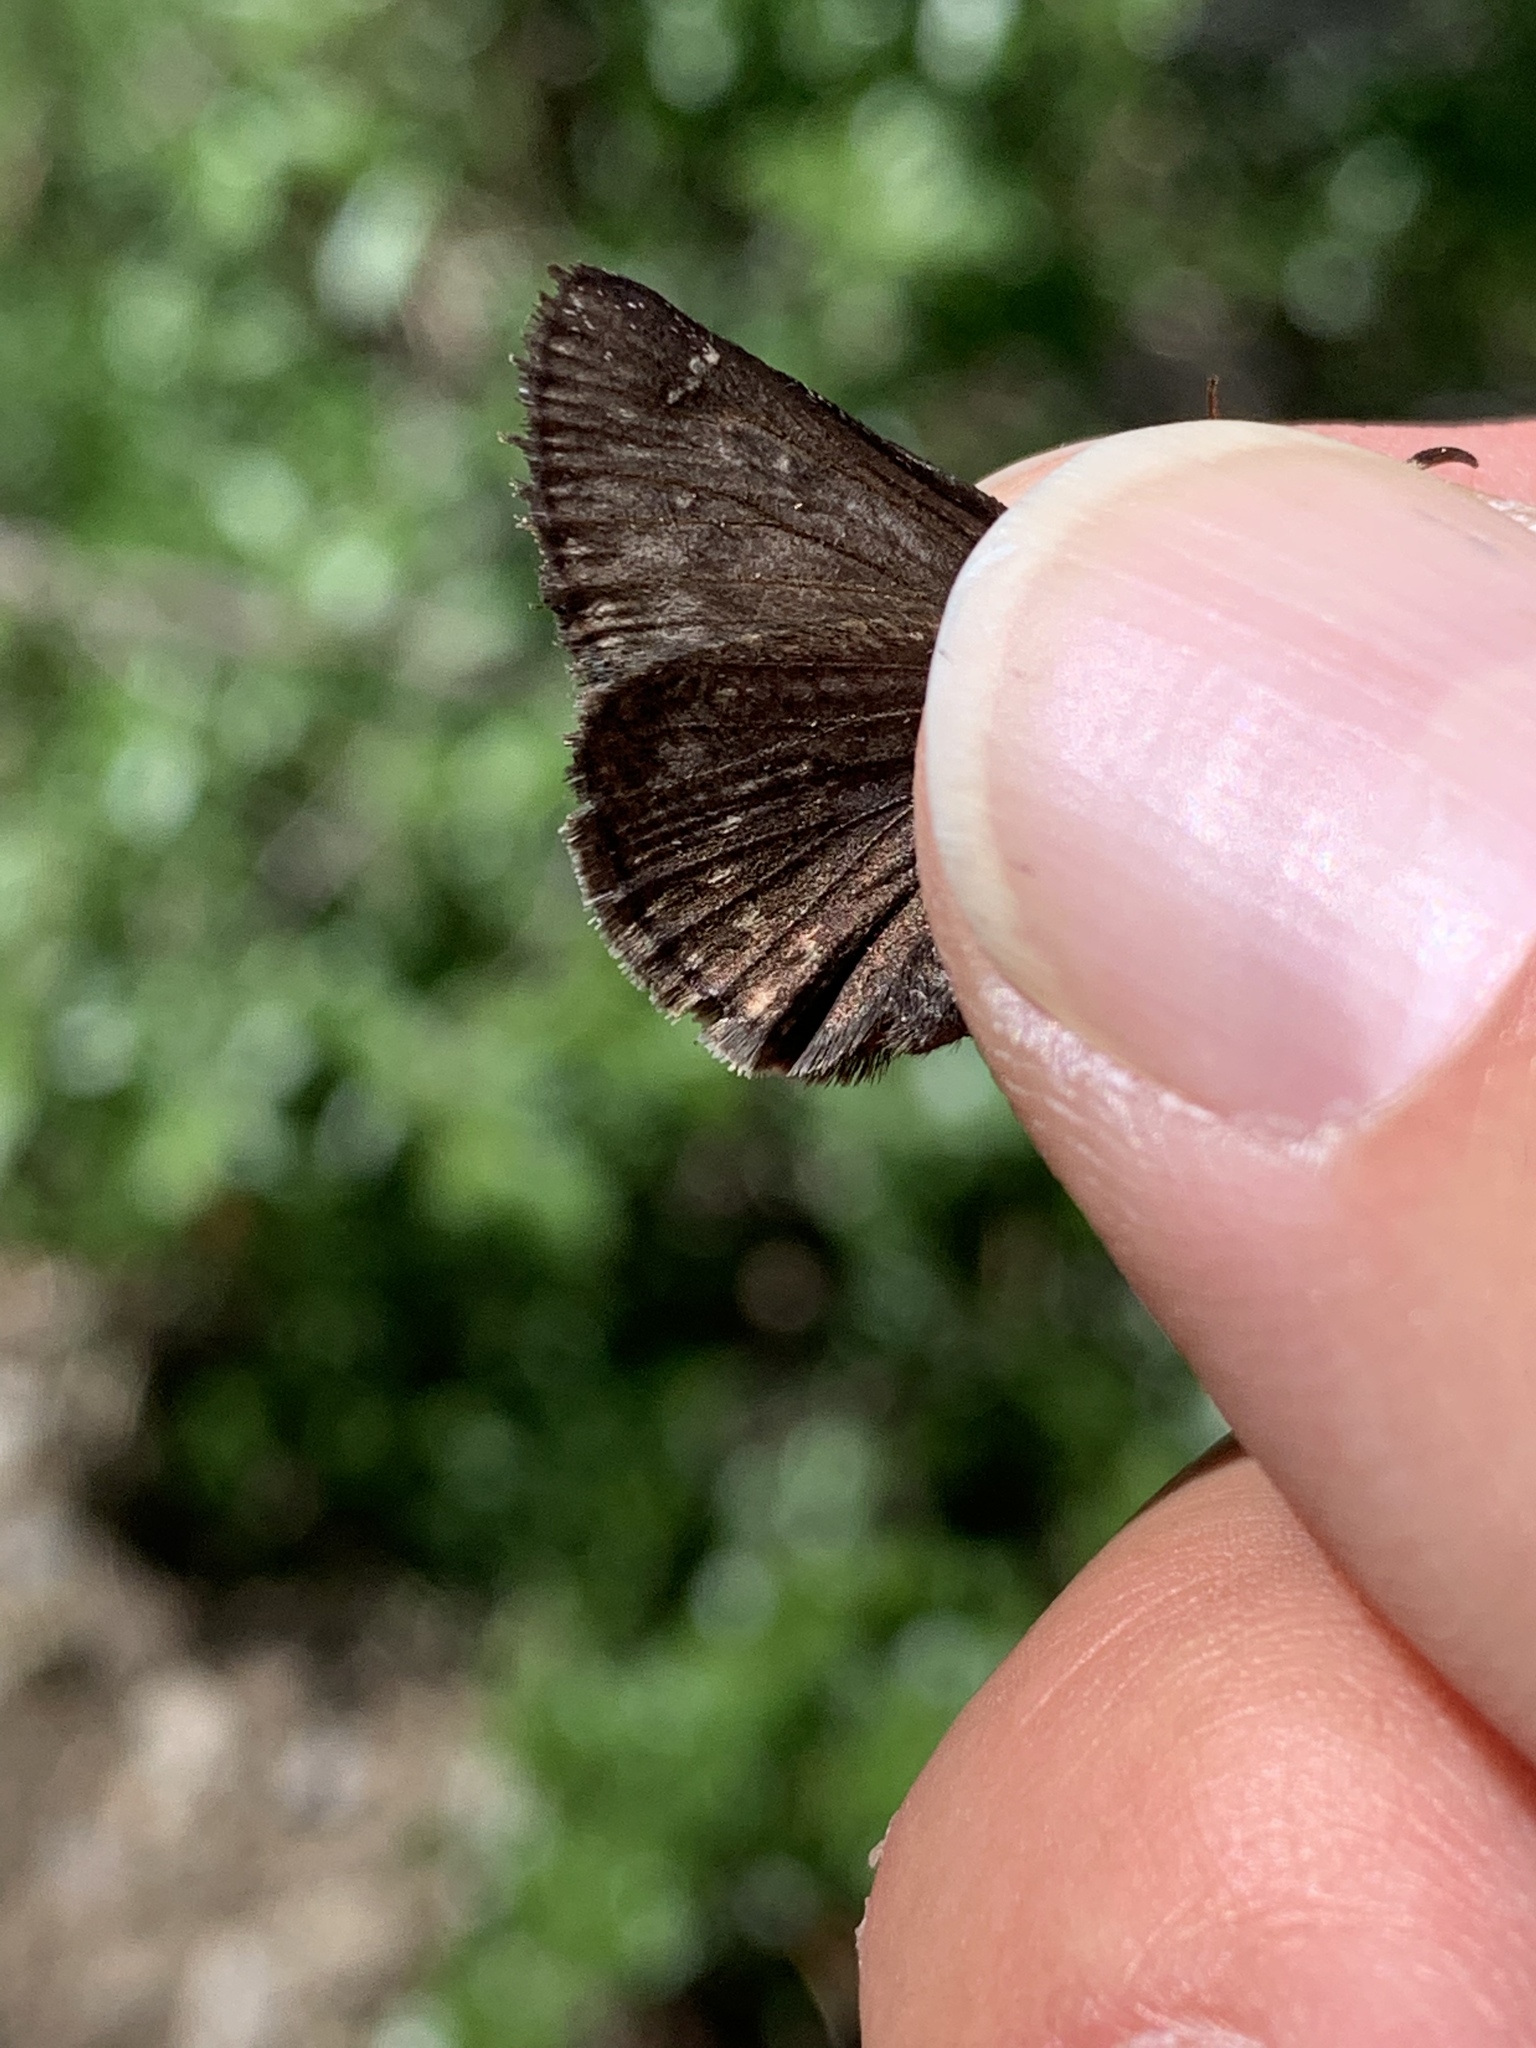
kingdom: Animalia
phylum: Arthropoda
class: Insecta
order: Lepidoptera
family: Hesperiidae
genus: Erynnis
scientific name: Erynnis persius
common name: Persius duskywing
